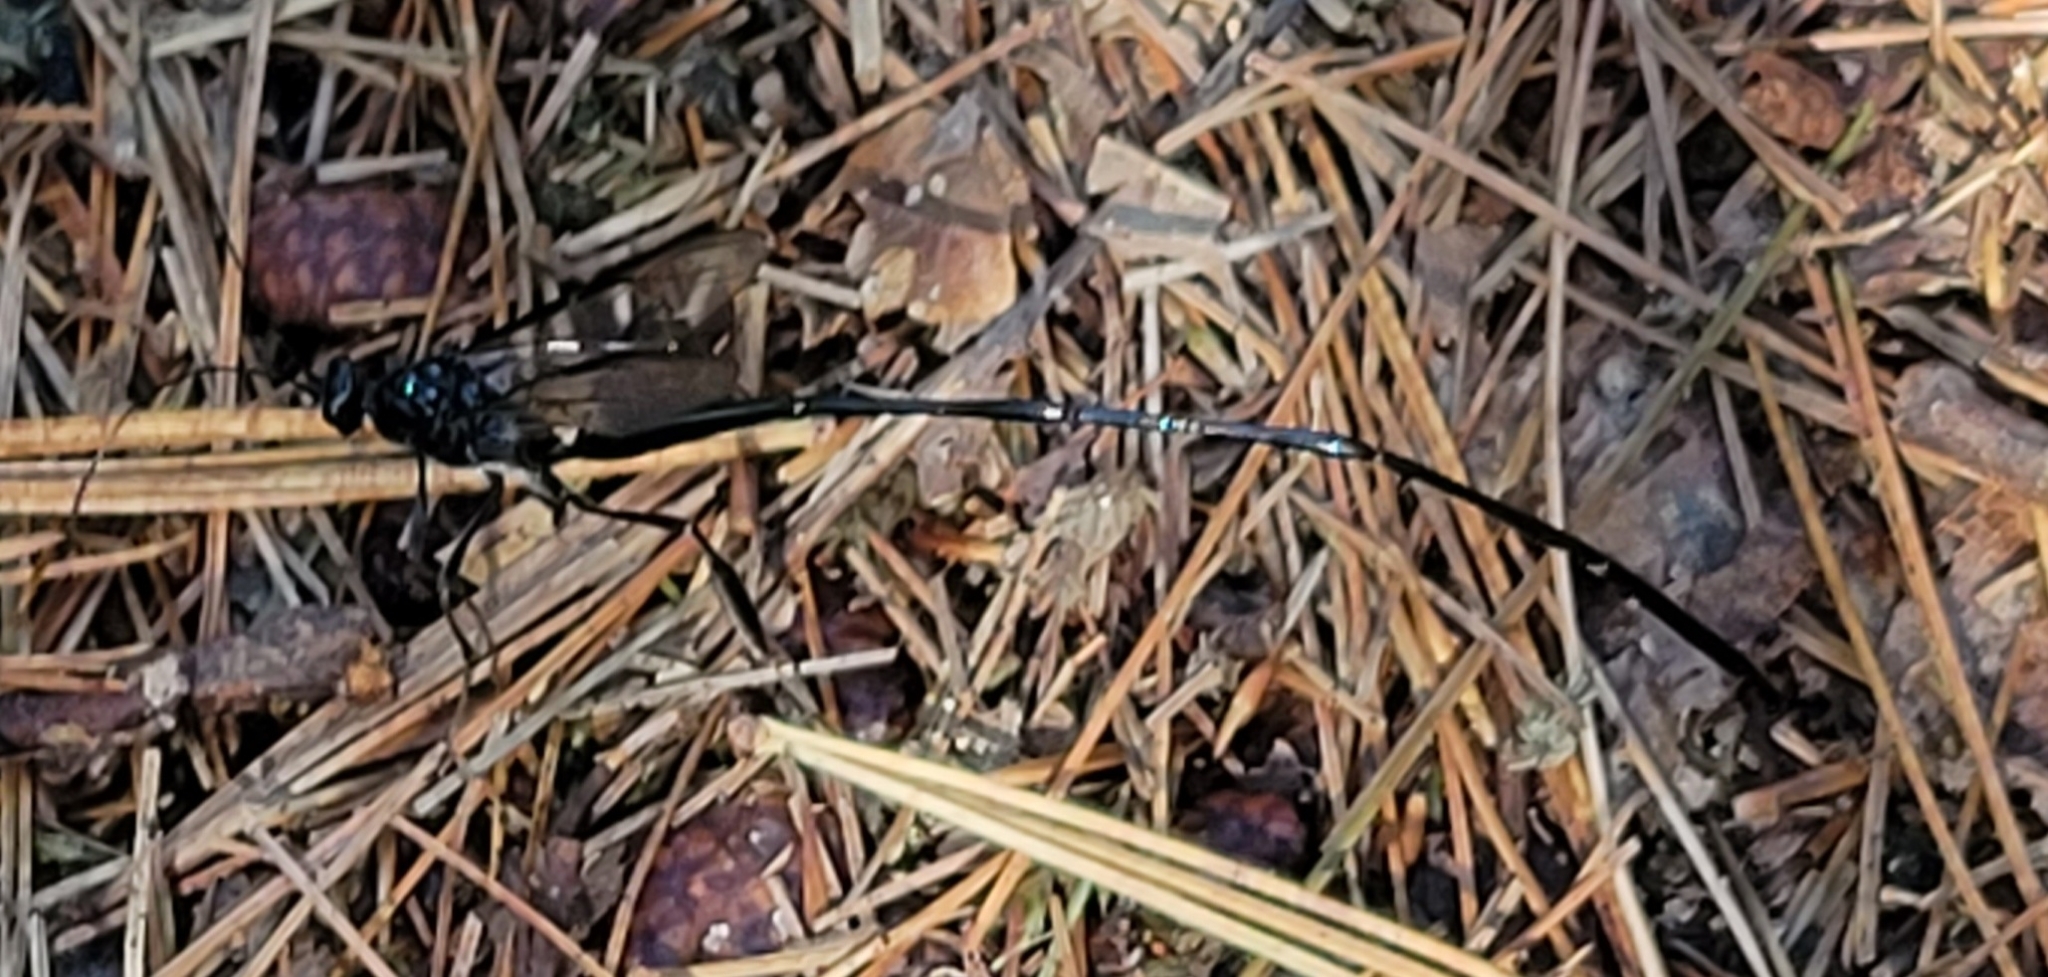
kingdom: Animalia
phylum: Arthropoda
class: Insecta
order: Hymenoptera
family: Pelecinidae
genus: Pelecinus
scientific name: Pelecinus polyturator
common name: American pelecinid wasp
